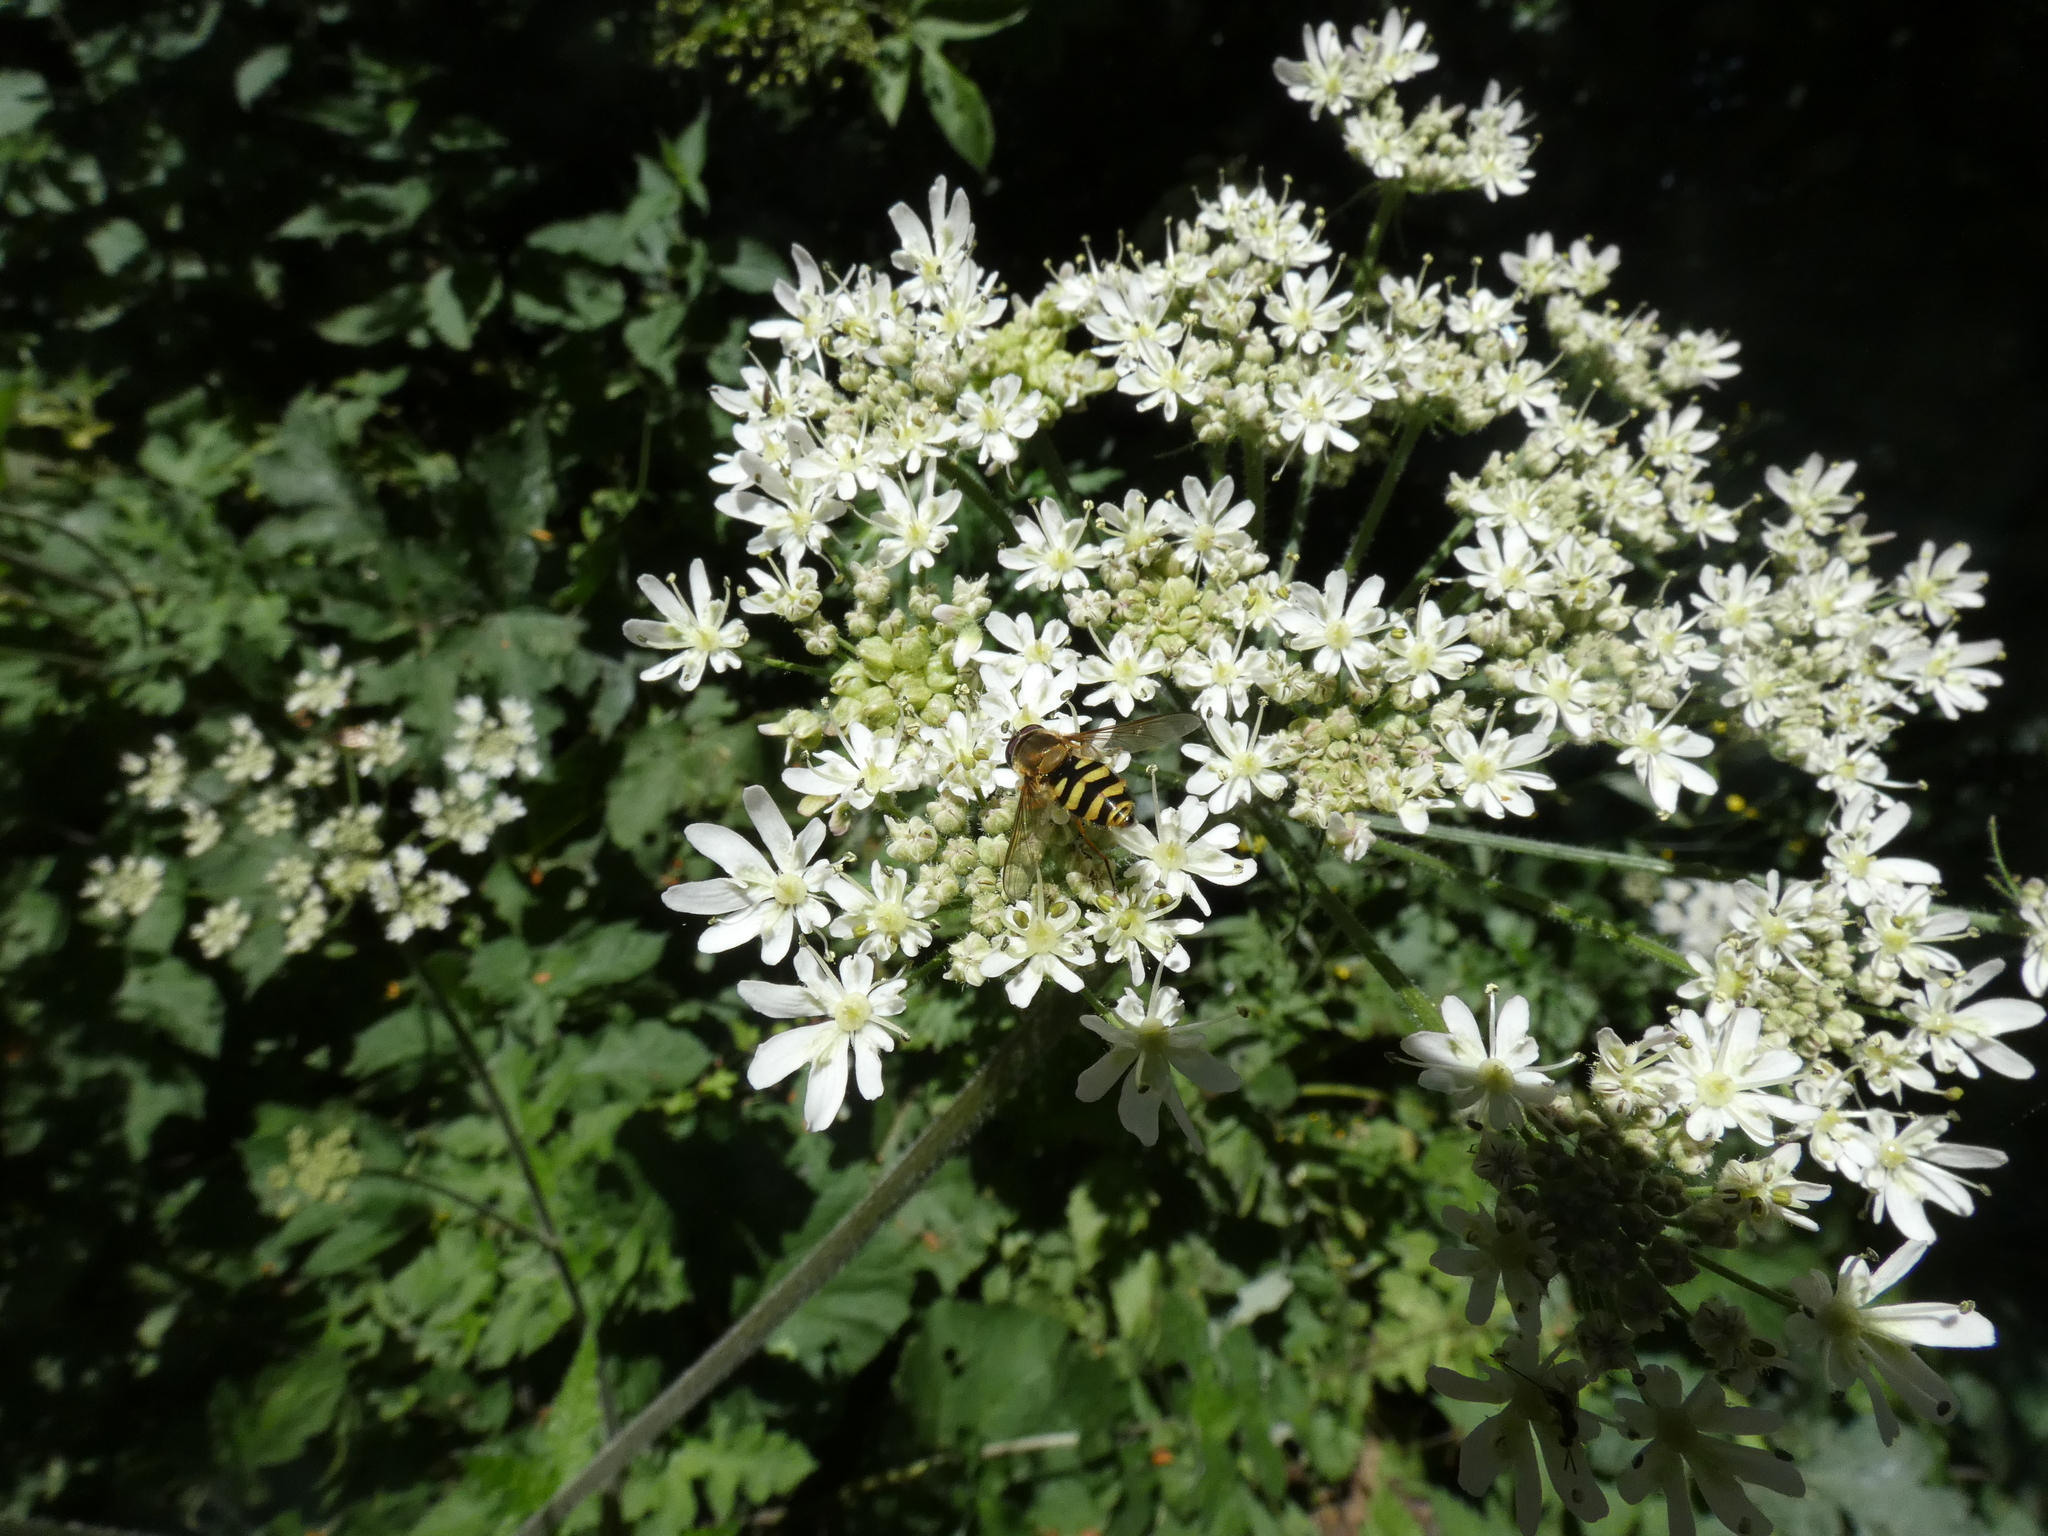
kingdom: Animalia
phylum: Arthropoda
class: Insecta
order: Diptera
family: Syrphidae
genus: Syrphus
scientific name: Syrphus
